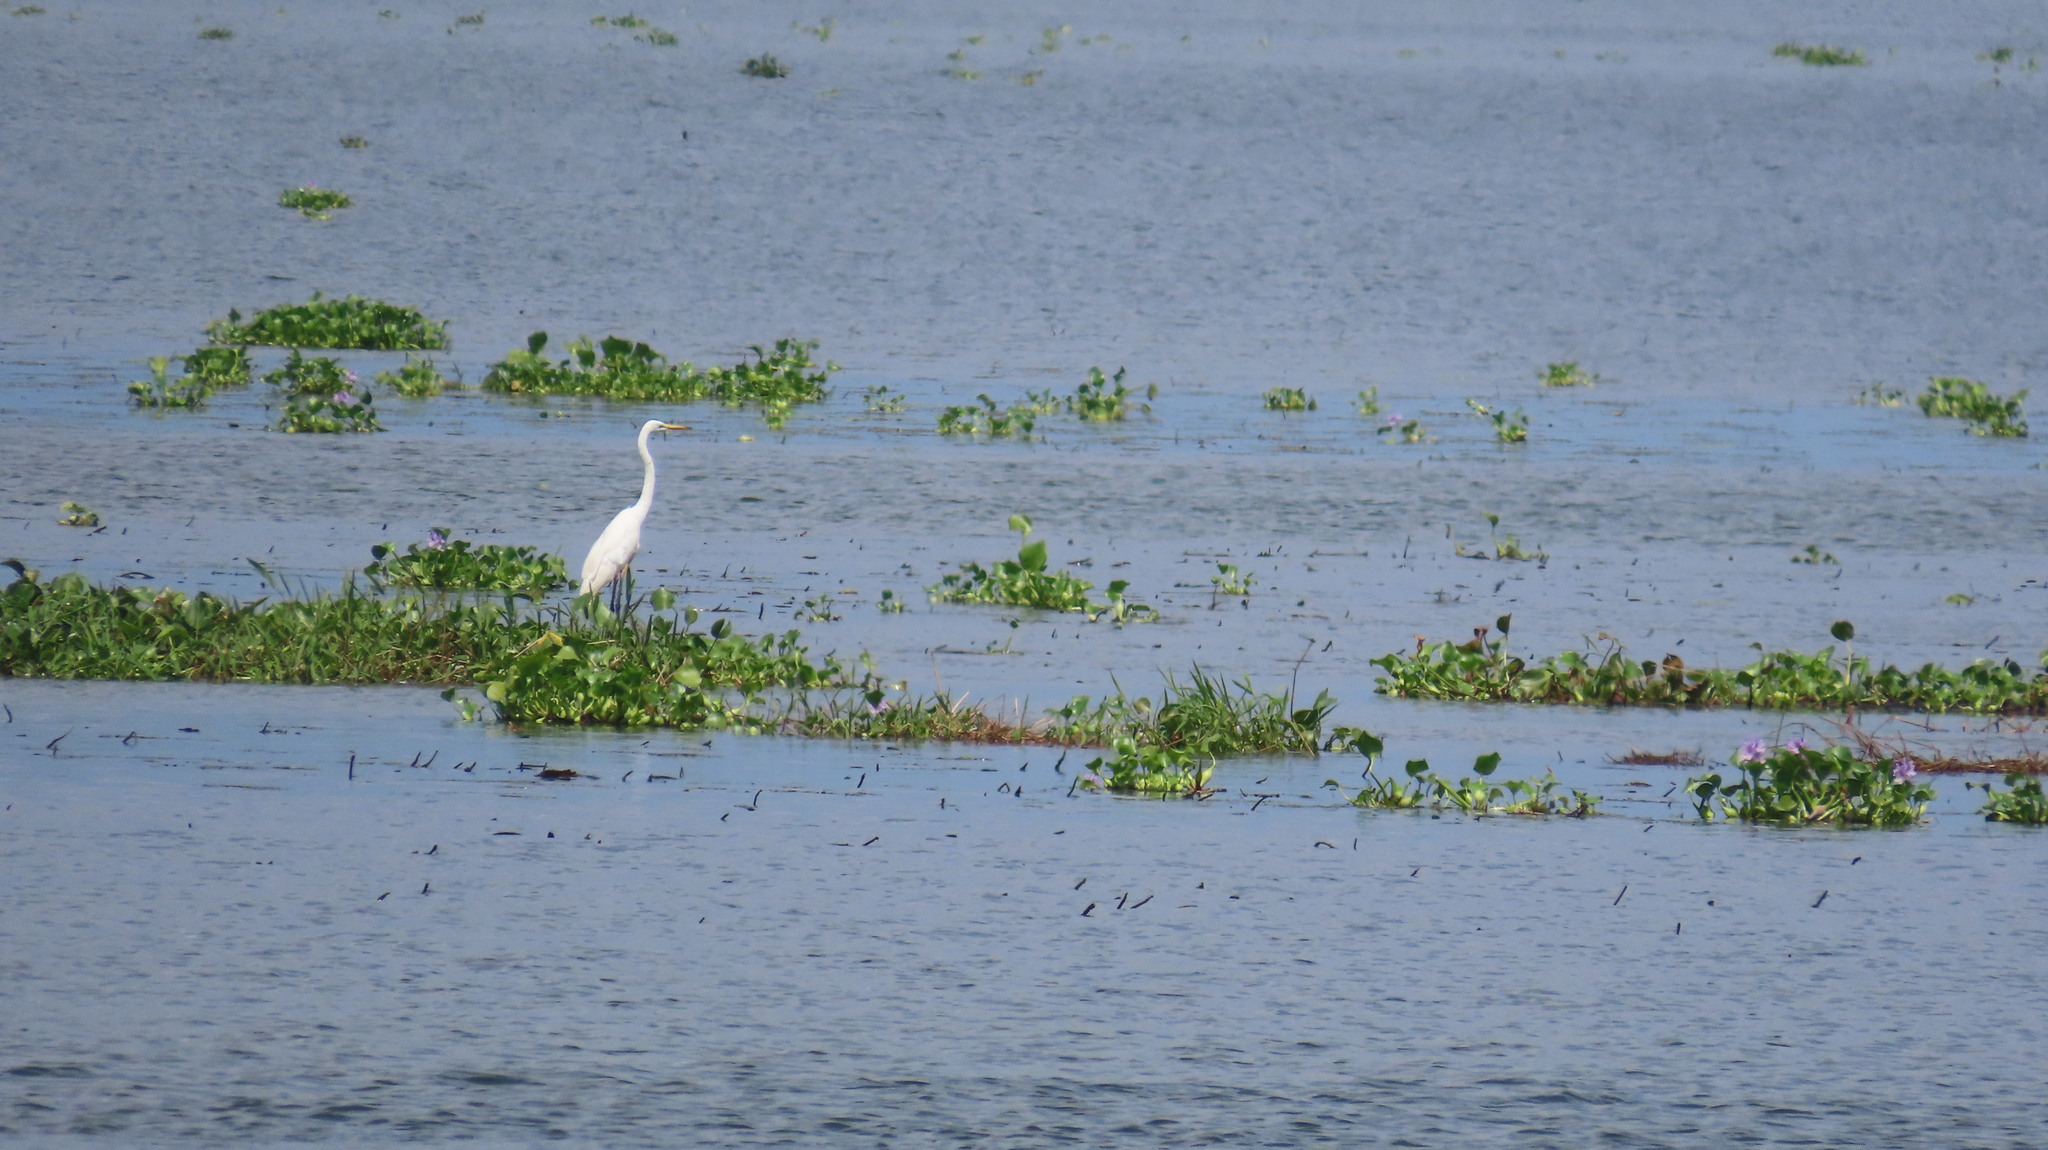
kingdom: Animalia
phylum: Chordata
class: Aves
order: Pelecaniformes
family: Ardeidae
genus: Egretta
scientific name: Egretta intermedia
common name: Intermediate egret
